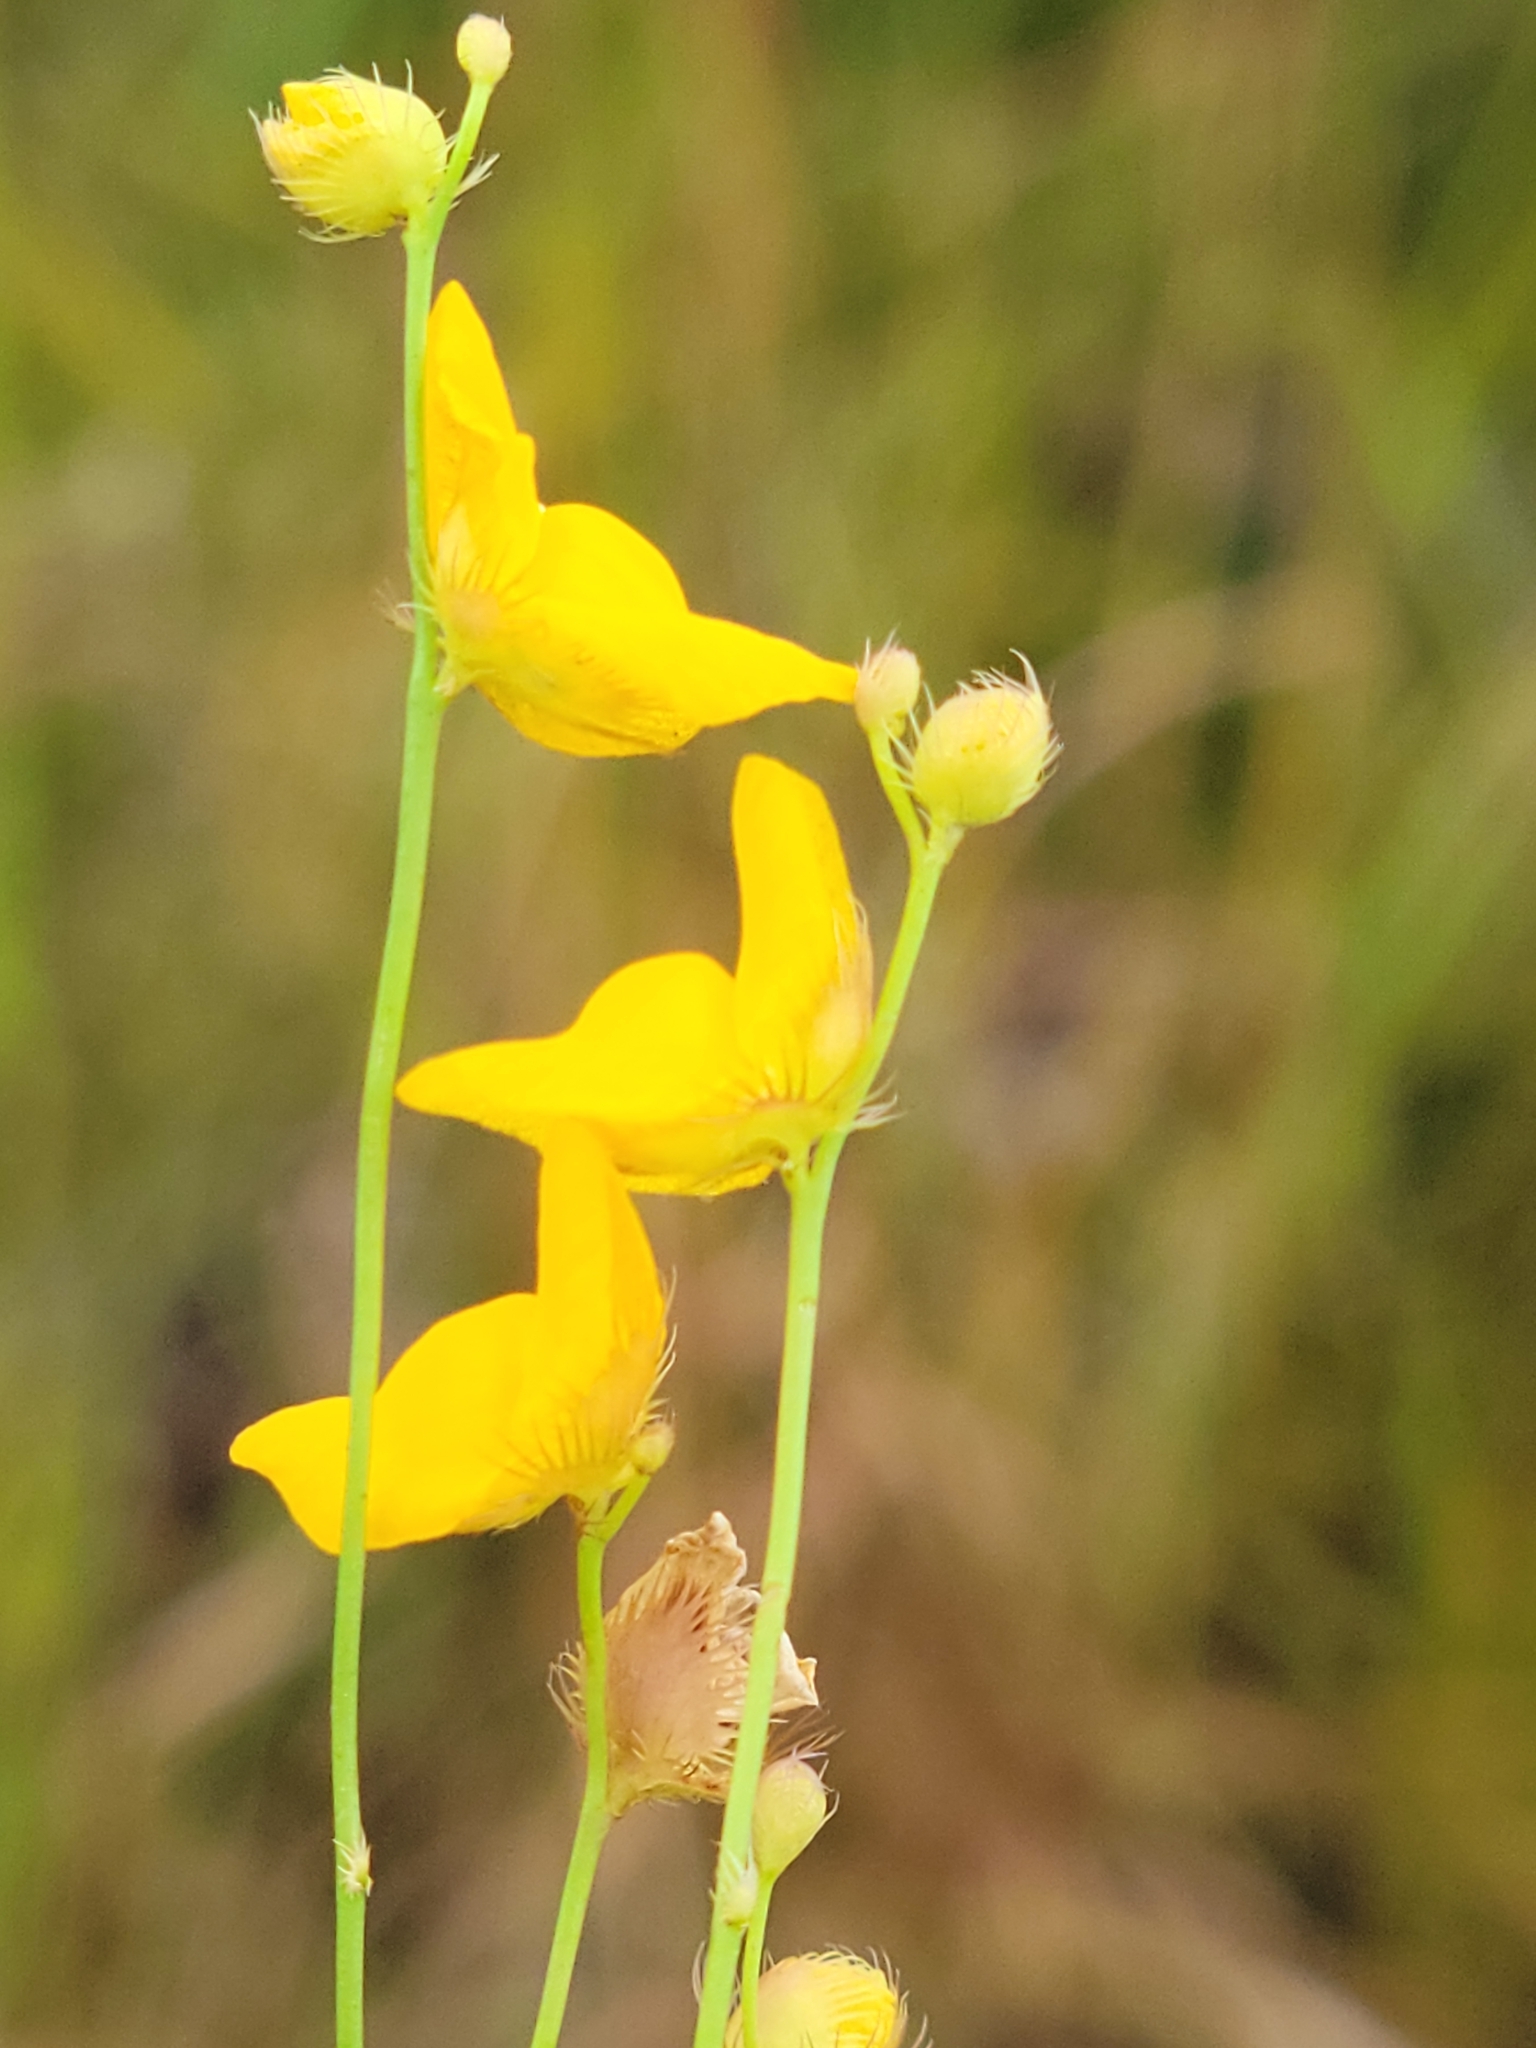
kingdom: Plantae
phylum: Tracheophyta
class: Magnoliopsida
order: Lamiales
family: Lentibulariaceae
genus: Utricularia
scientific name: Utricularia simulans
